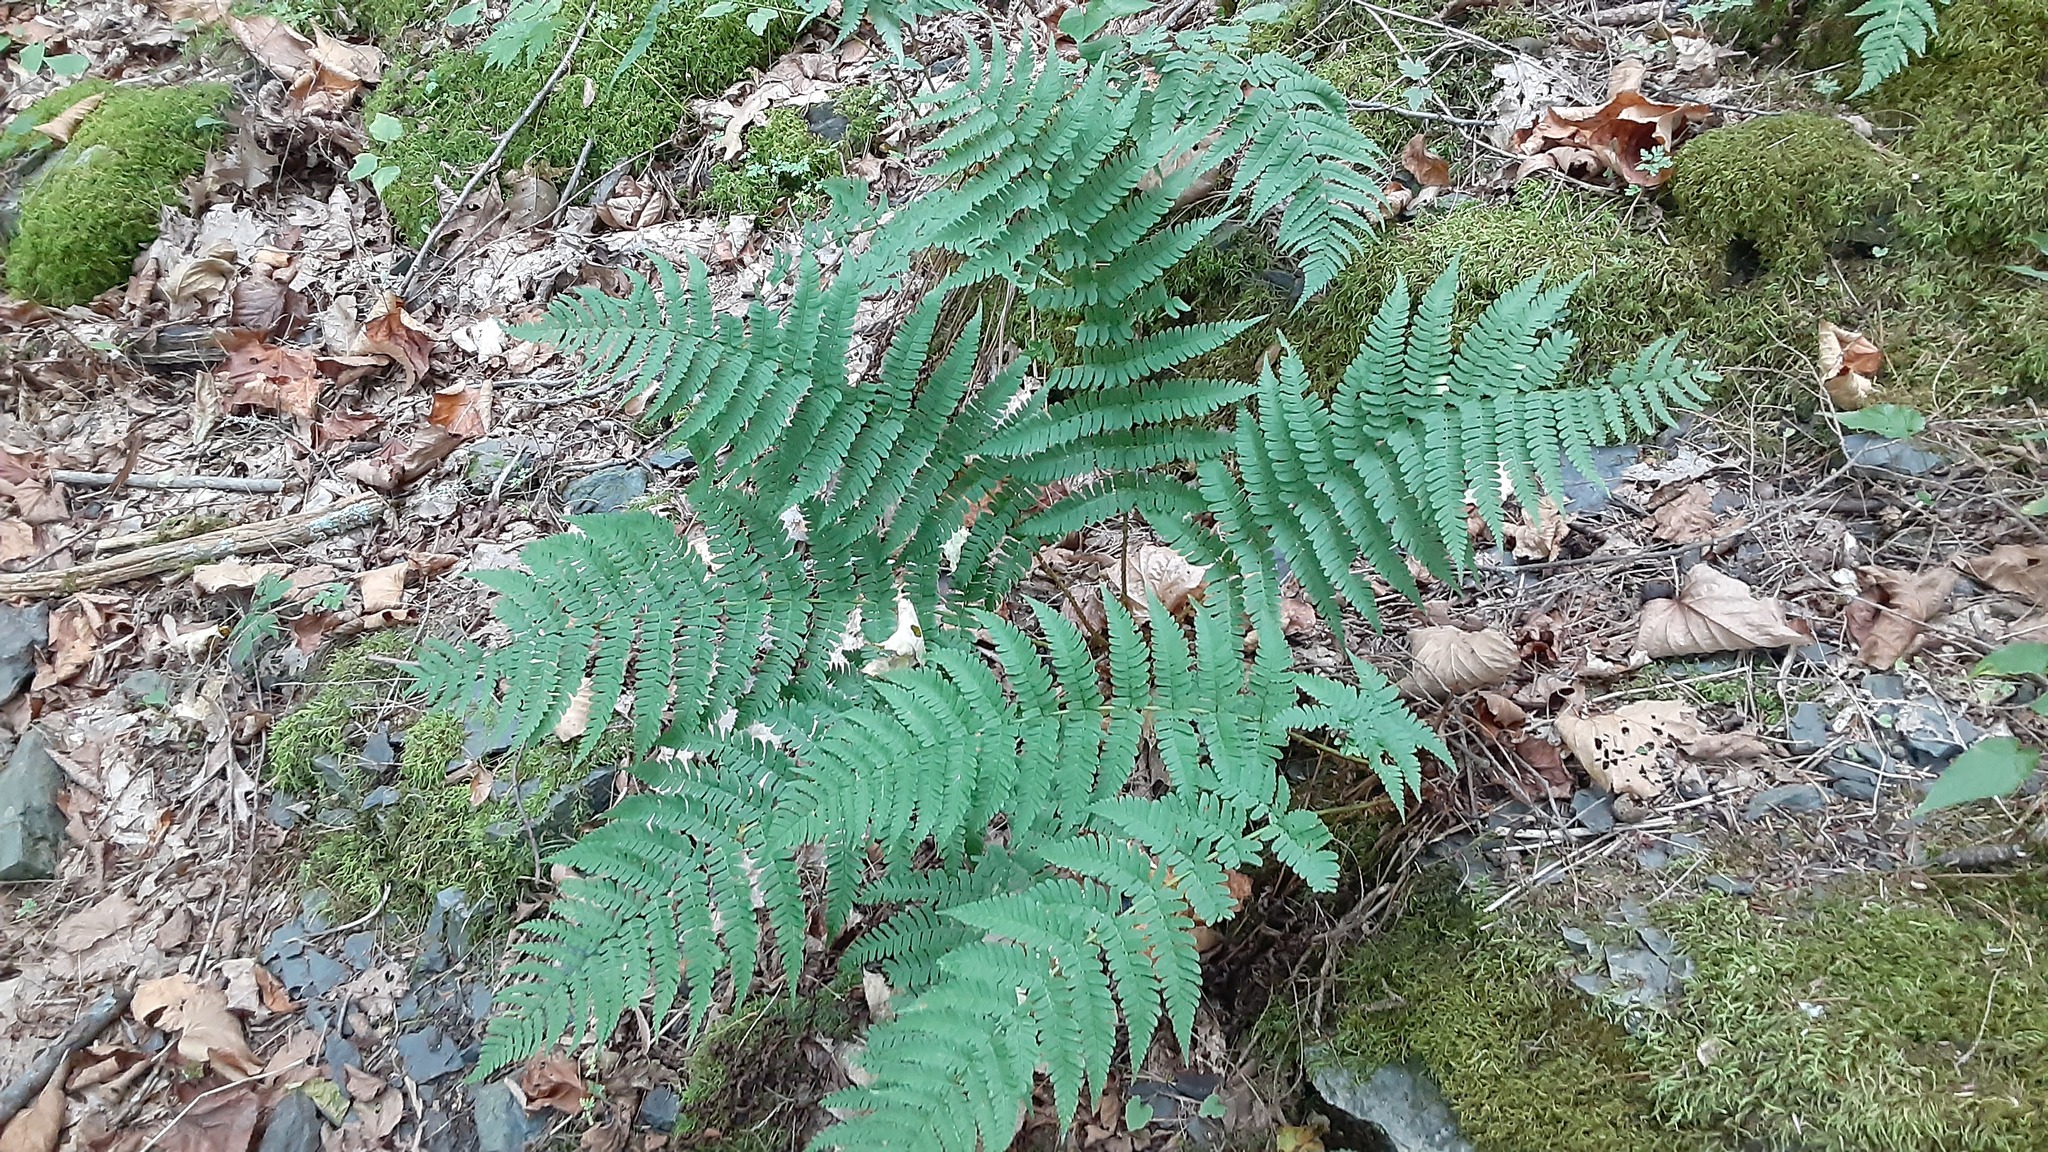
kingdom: Plantae
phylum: Tracheophyta
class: Polypodiopsida
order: Polypodiales
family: Dryopteridaceae
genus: Dryopteris
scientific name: Dryopteris marginalis
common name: Marginal wood fern
